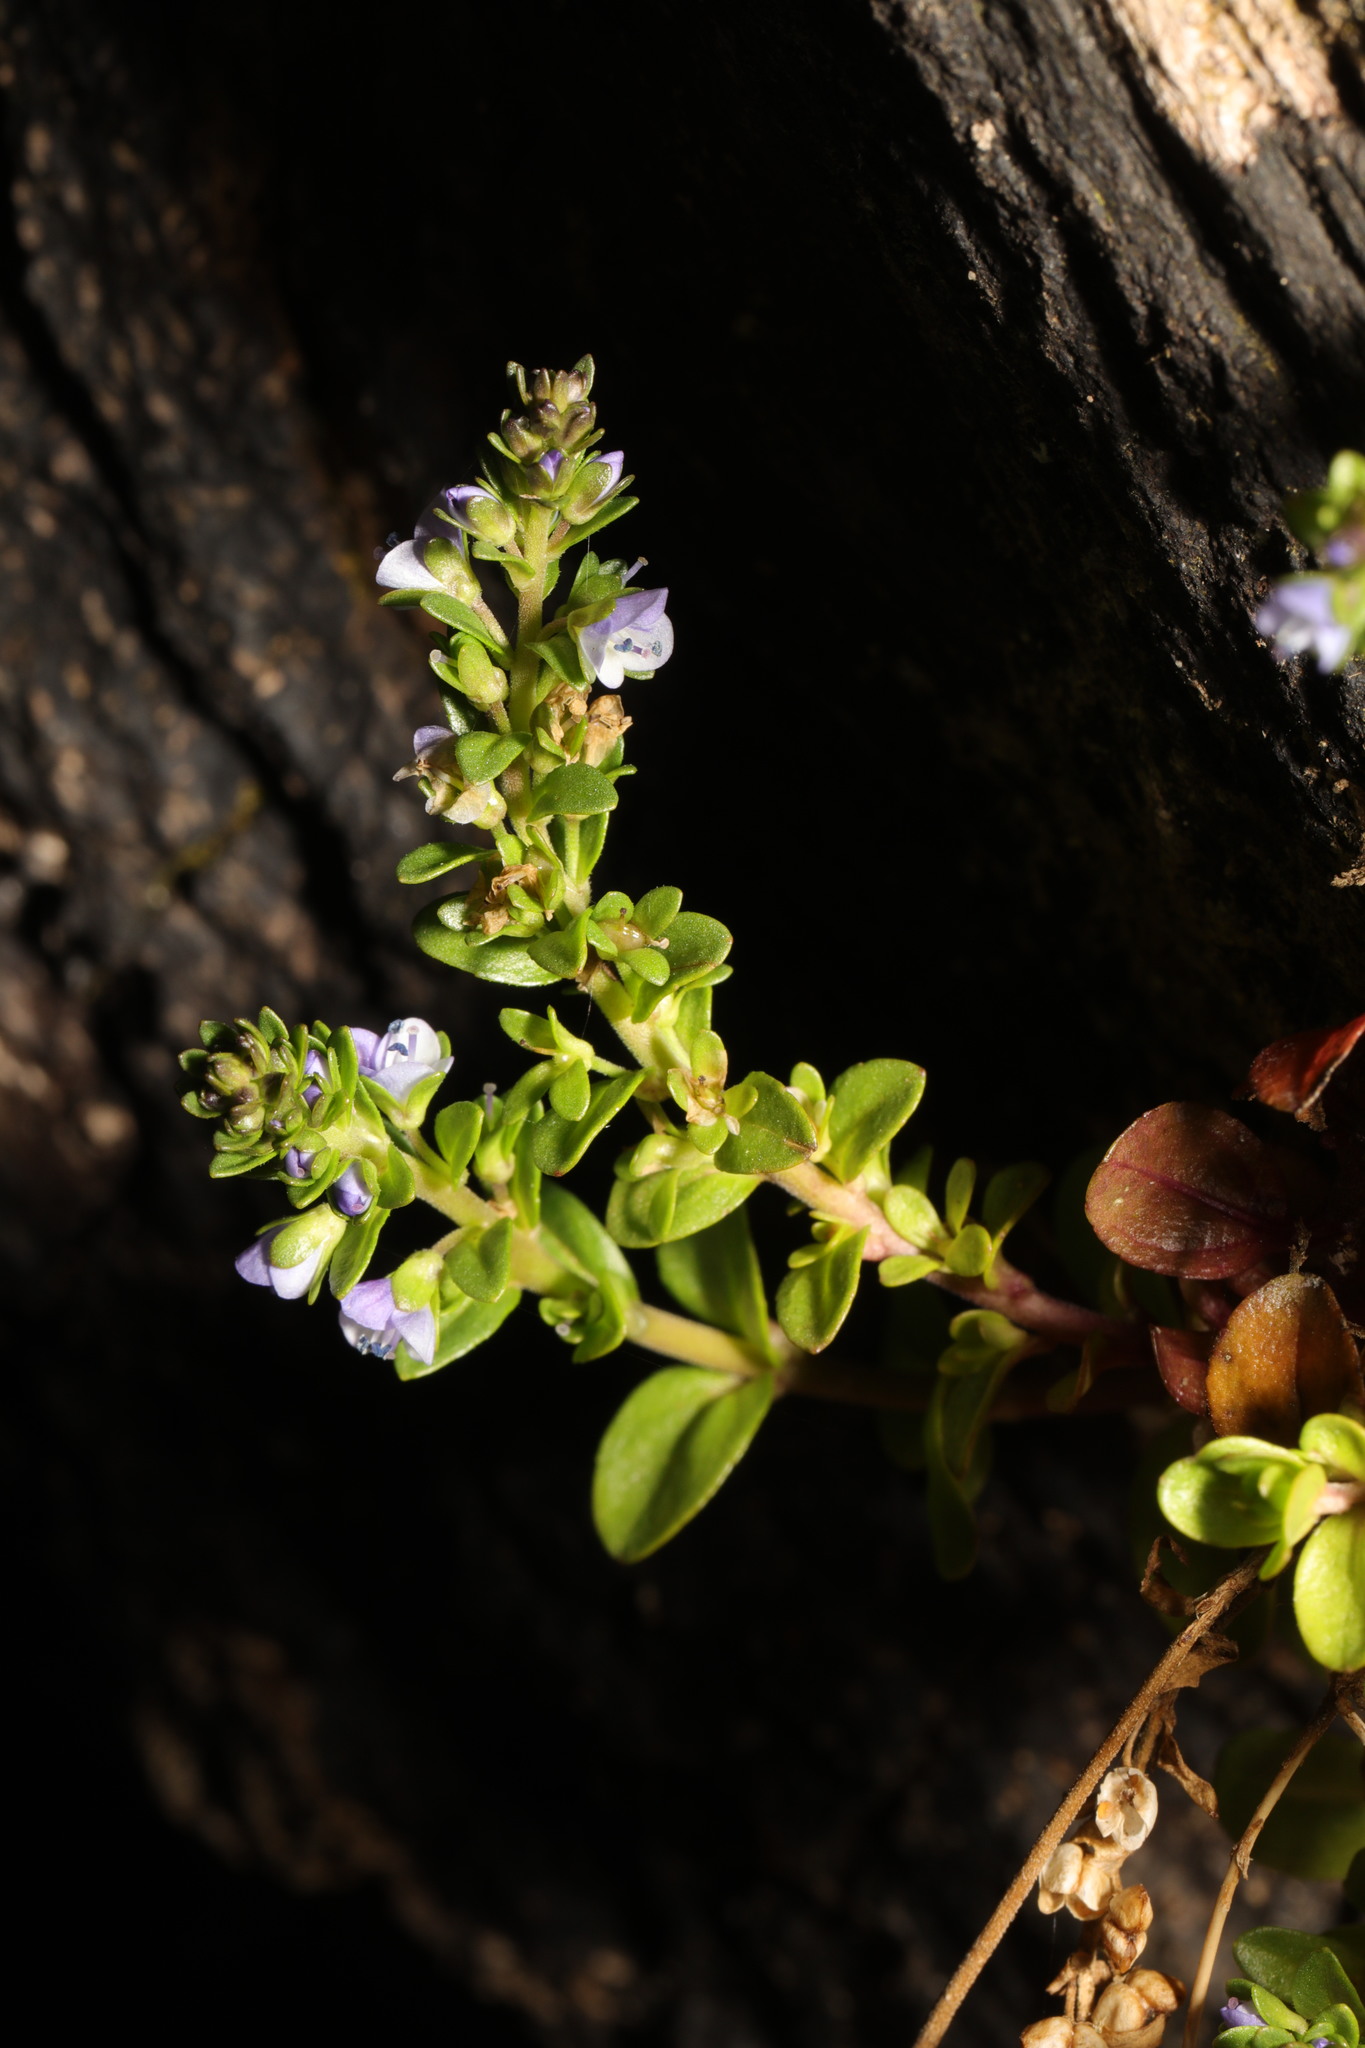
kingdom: Plantae
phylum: Tracheophyta
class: Magnoliopsida
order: Lamiales
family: Plantaginaceae
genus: Veronica
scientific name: Veronica serpyllifolia
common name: Thyme-leaved speedwell
